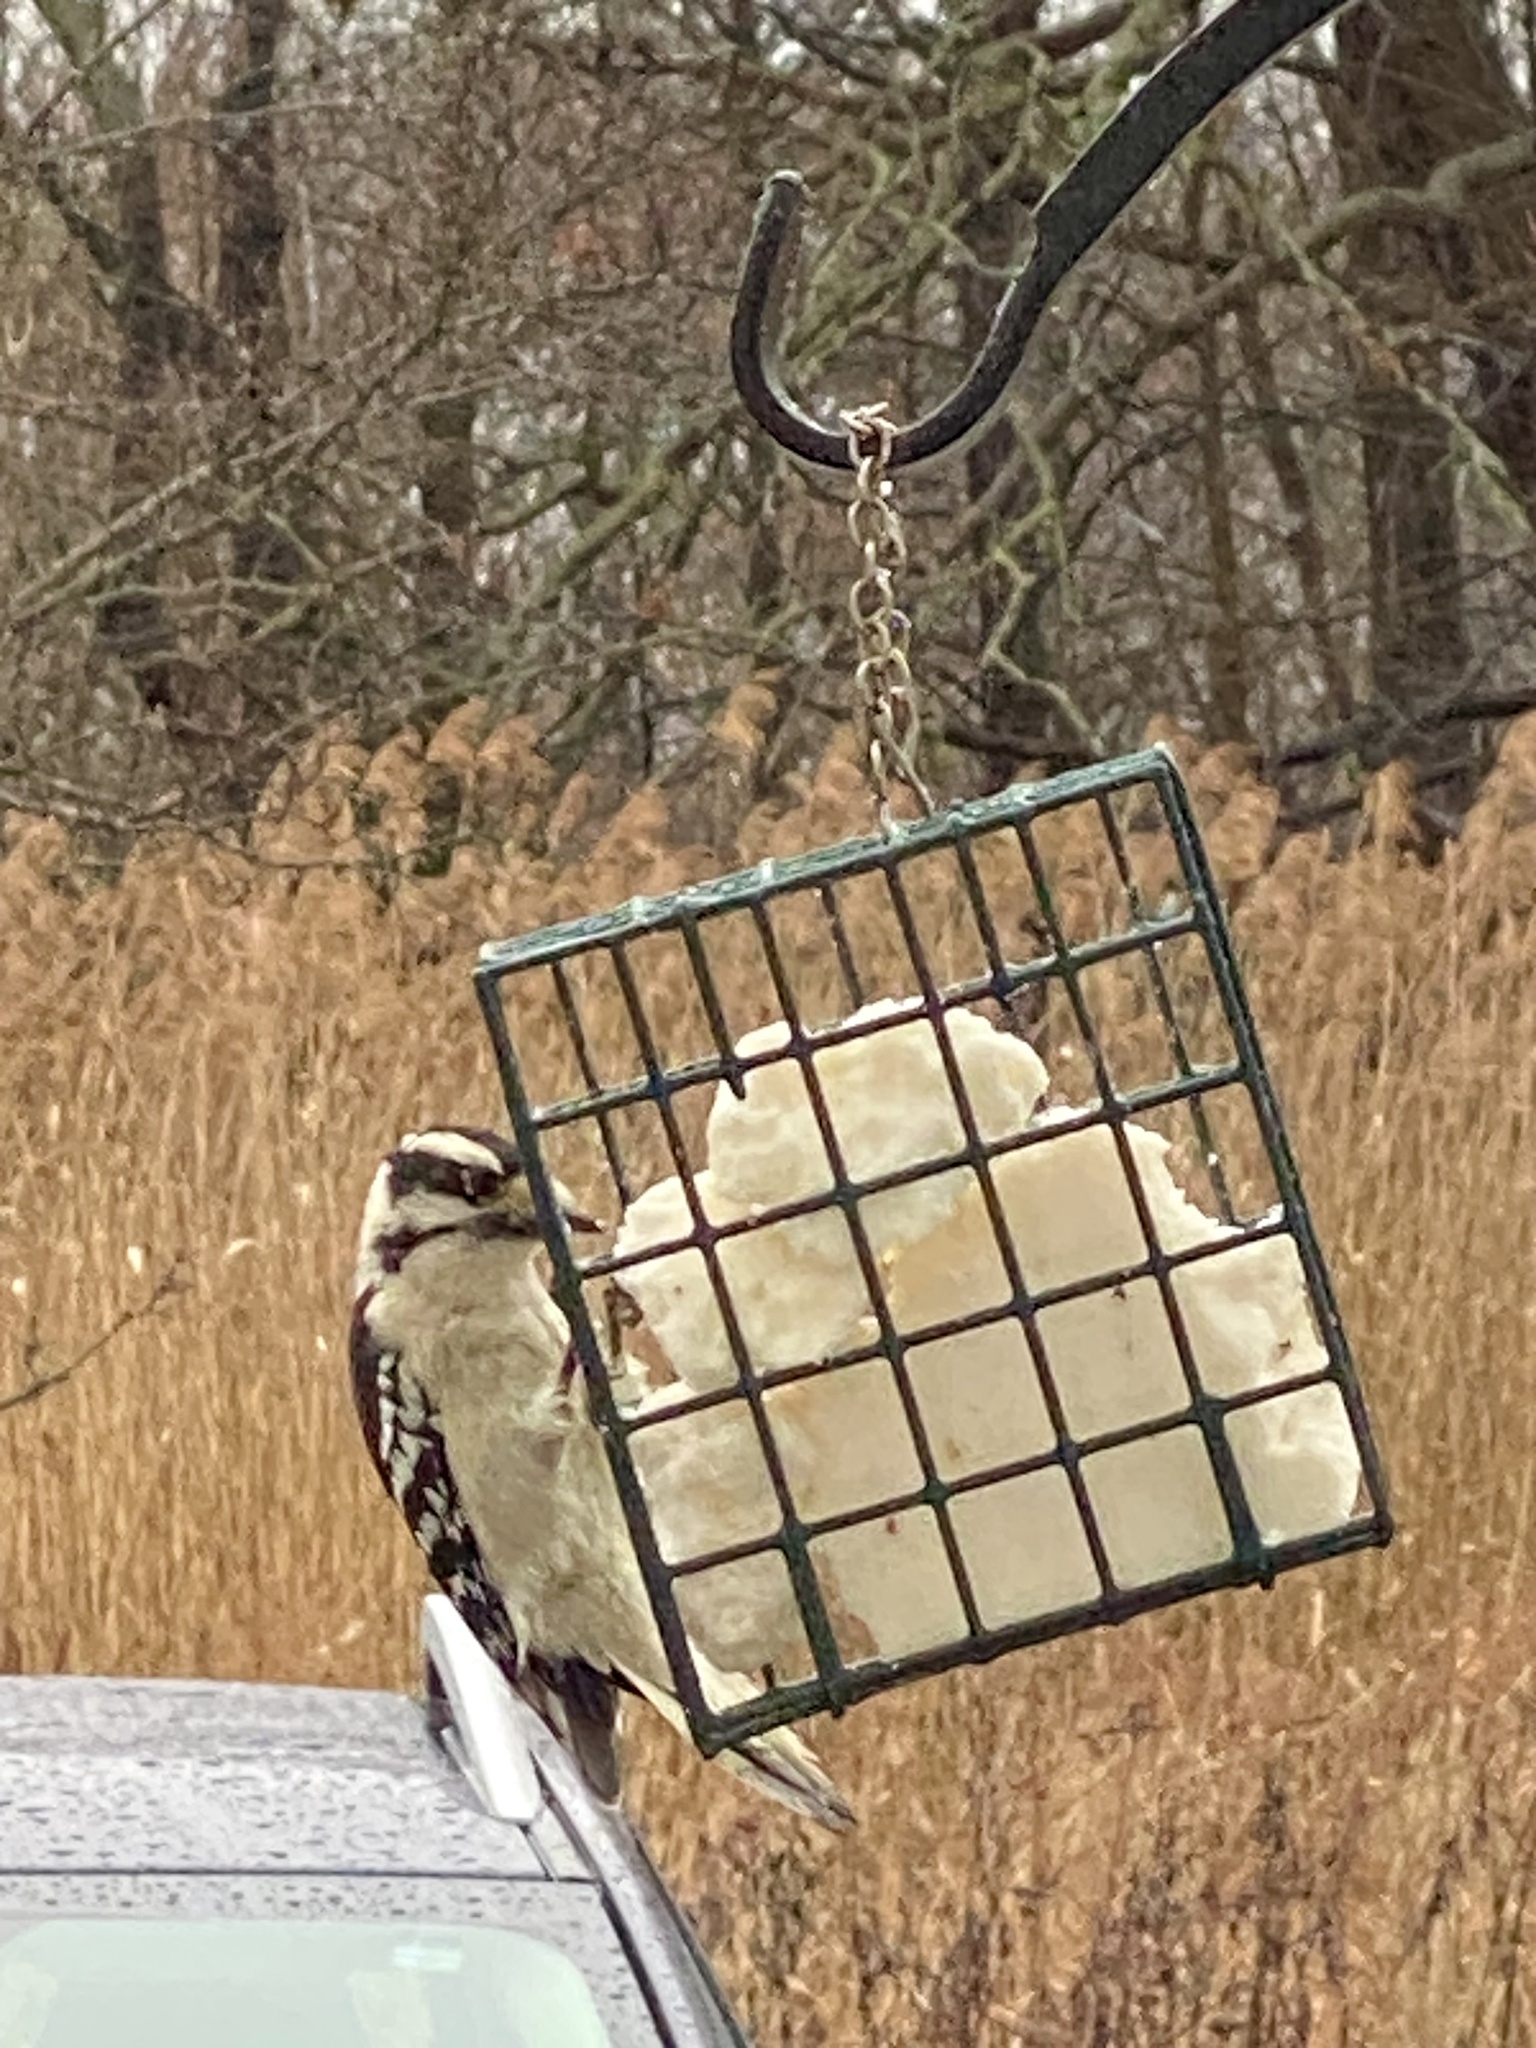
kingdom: Animalia
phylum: Chordata
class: Aves
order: Piciformes
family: Picidae
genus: Dryobates
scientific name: Dryobates pubescens
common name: Downy woodpecker
